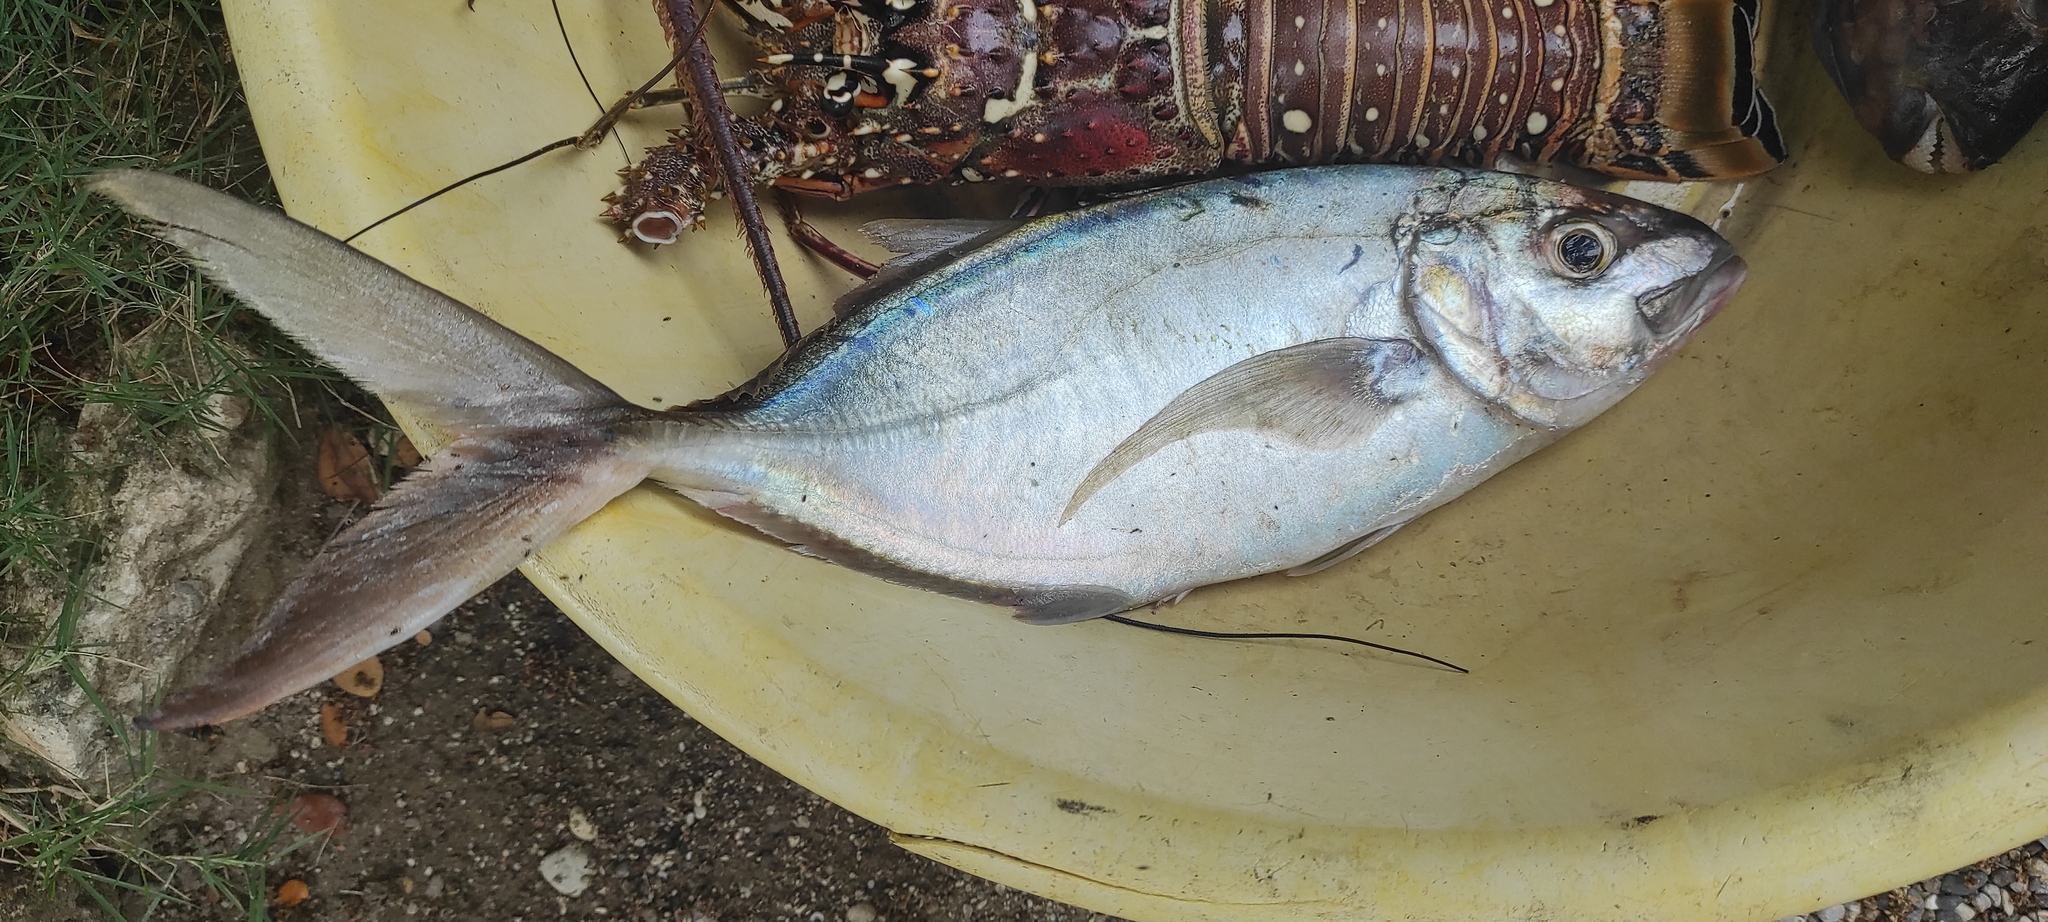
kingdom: Animalia
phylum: Chordata
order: Perciformes
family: Carangidae
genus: Caranx
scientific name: Caranx ruber
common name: Bar jack
